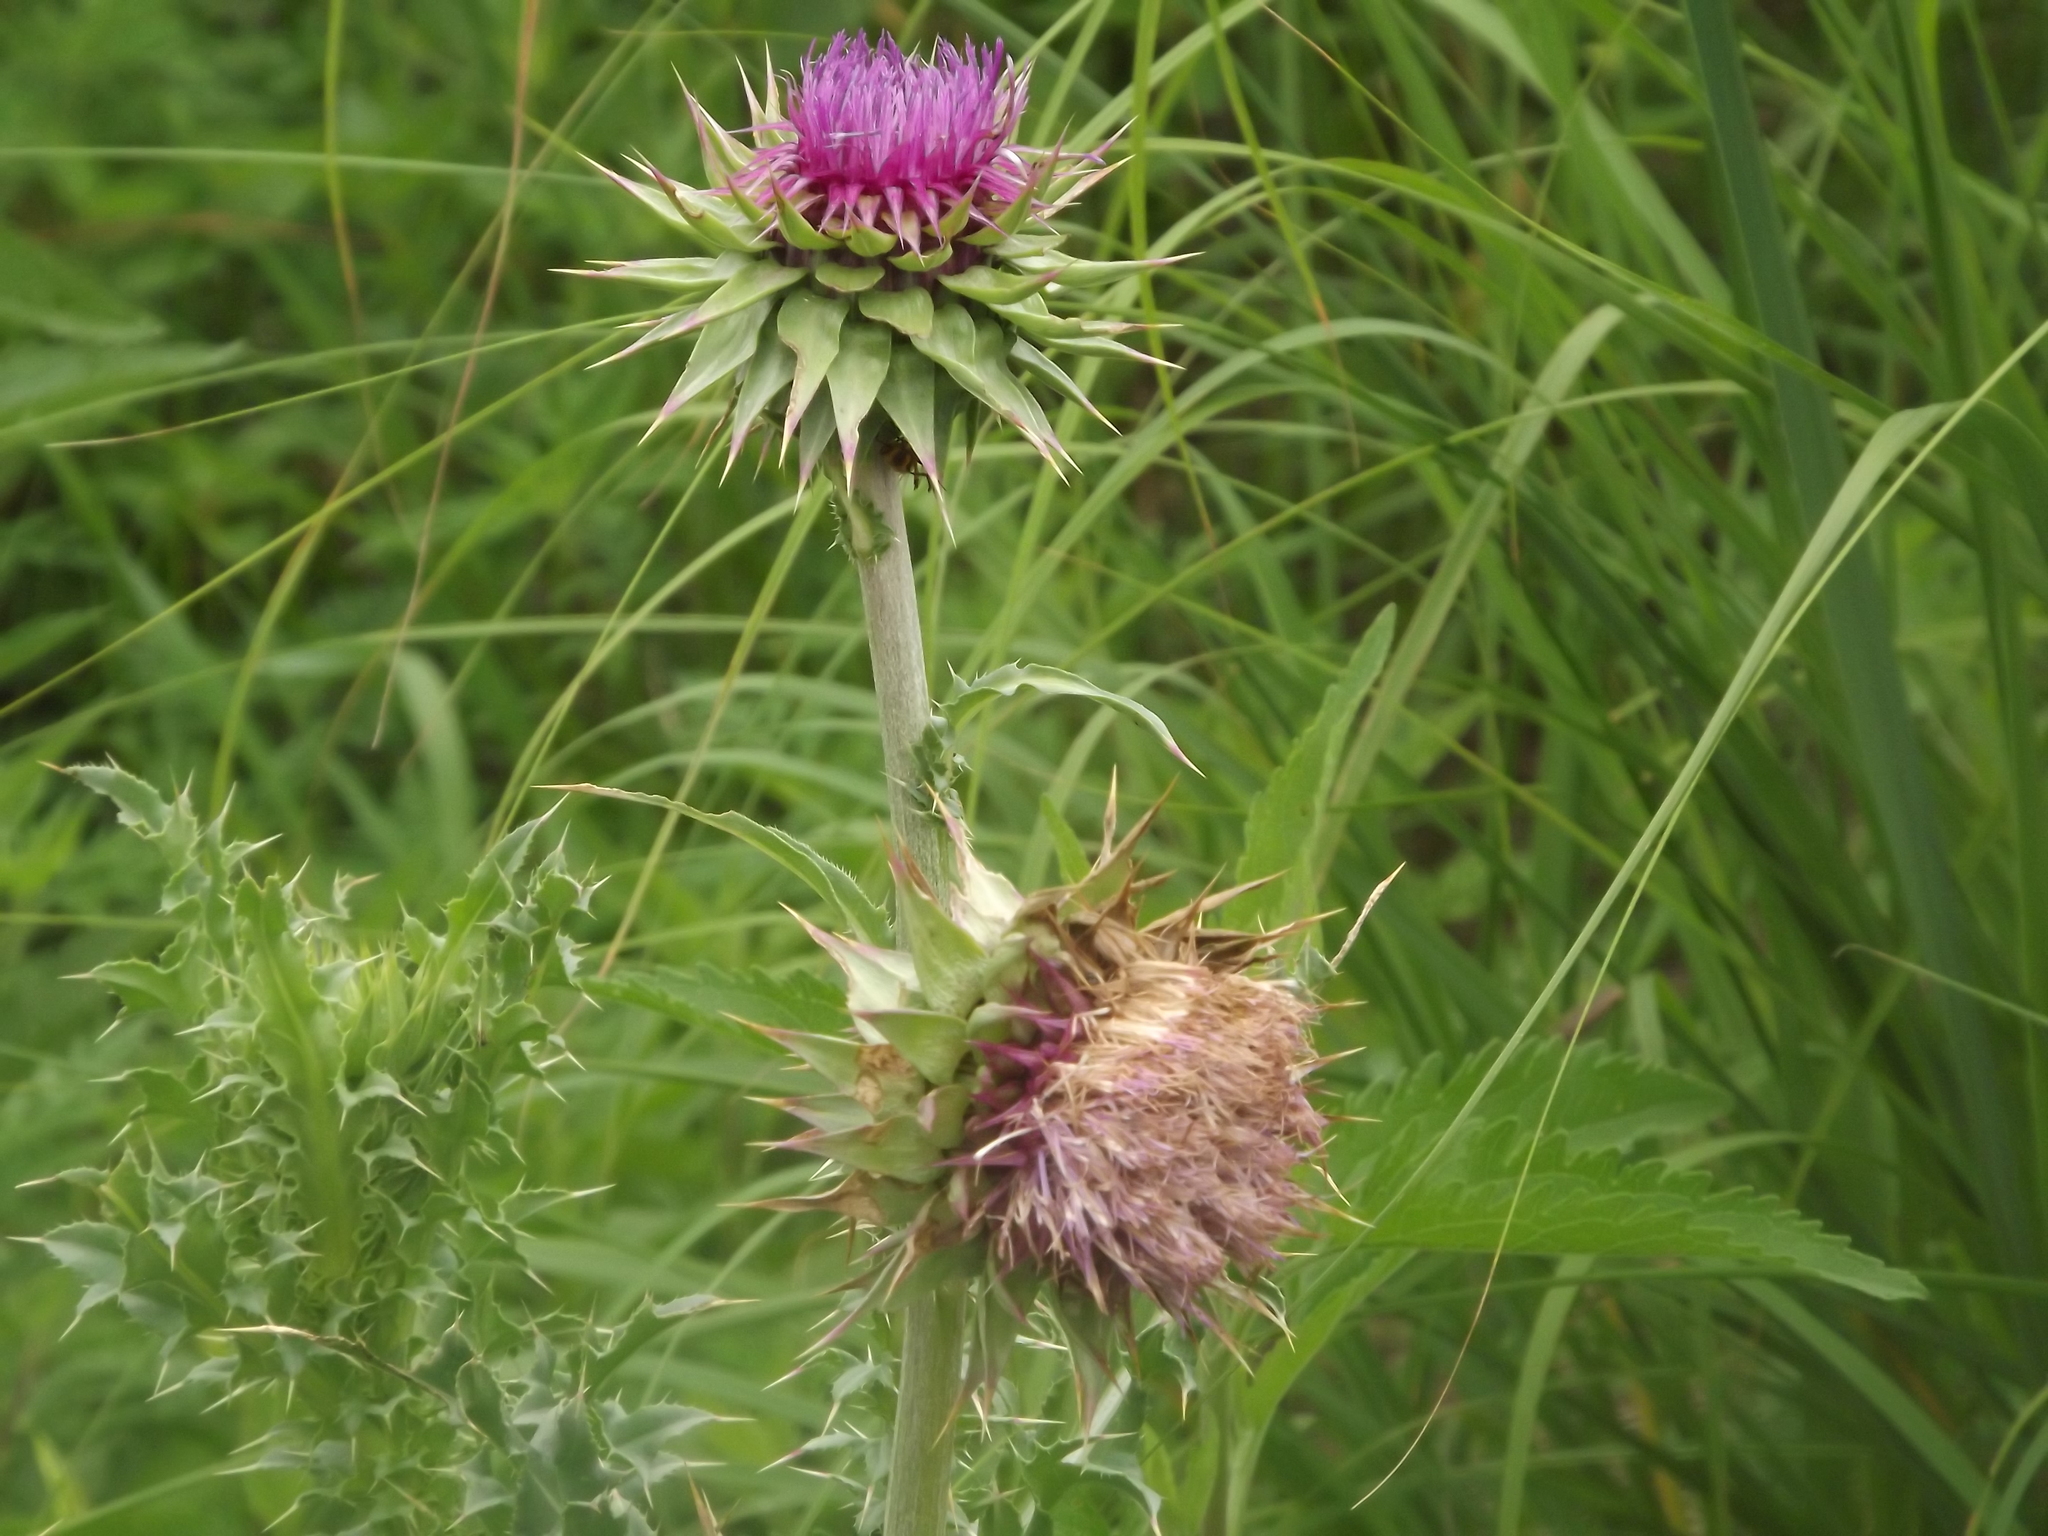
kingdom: Plantae
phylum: Tracheophyta
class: Magnoliopsida
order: Asterales
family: Asteraceae
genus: Carduus
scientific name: Carduus nutans
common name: Musk thistle
